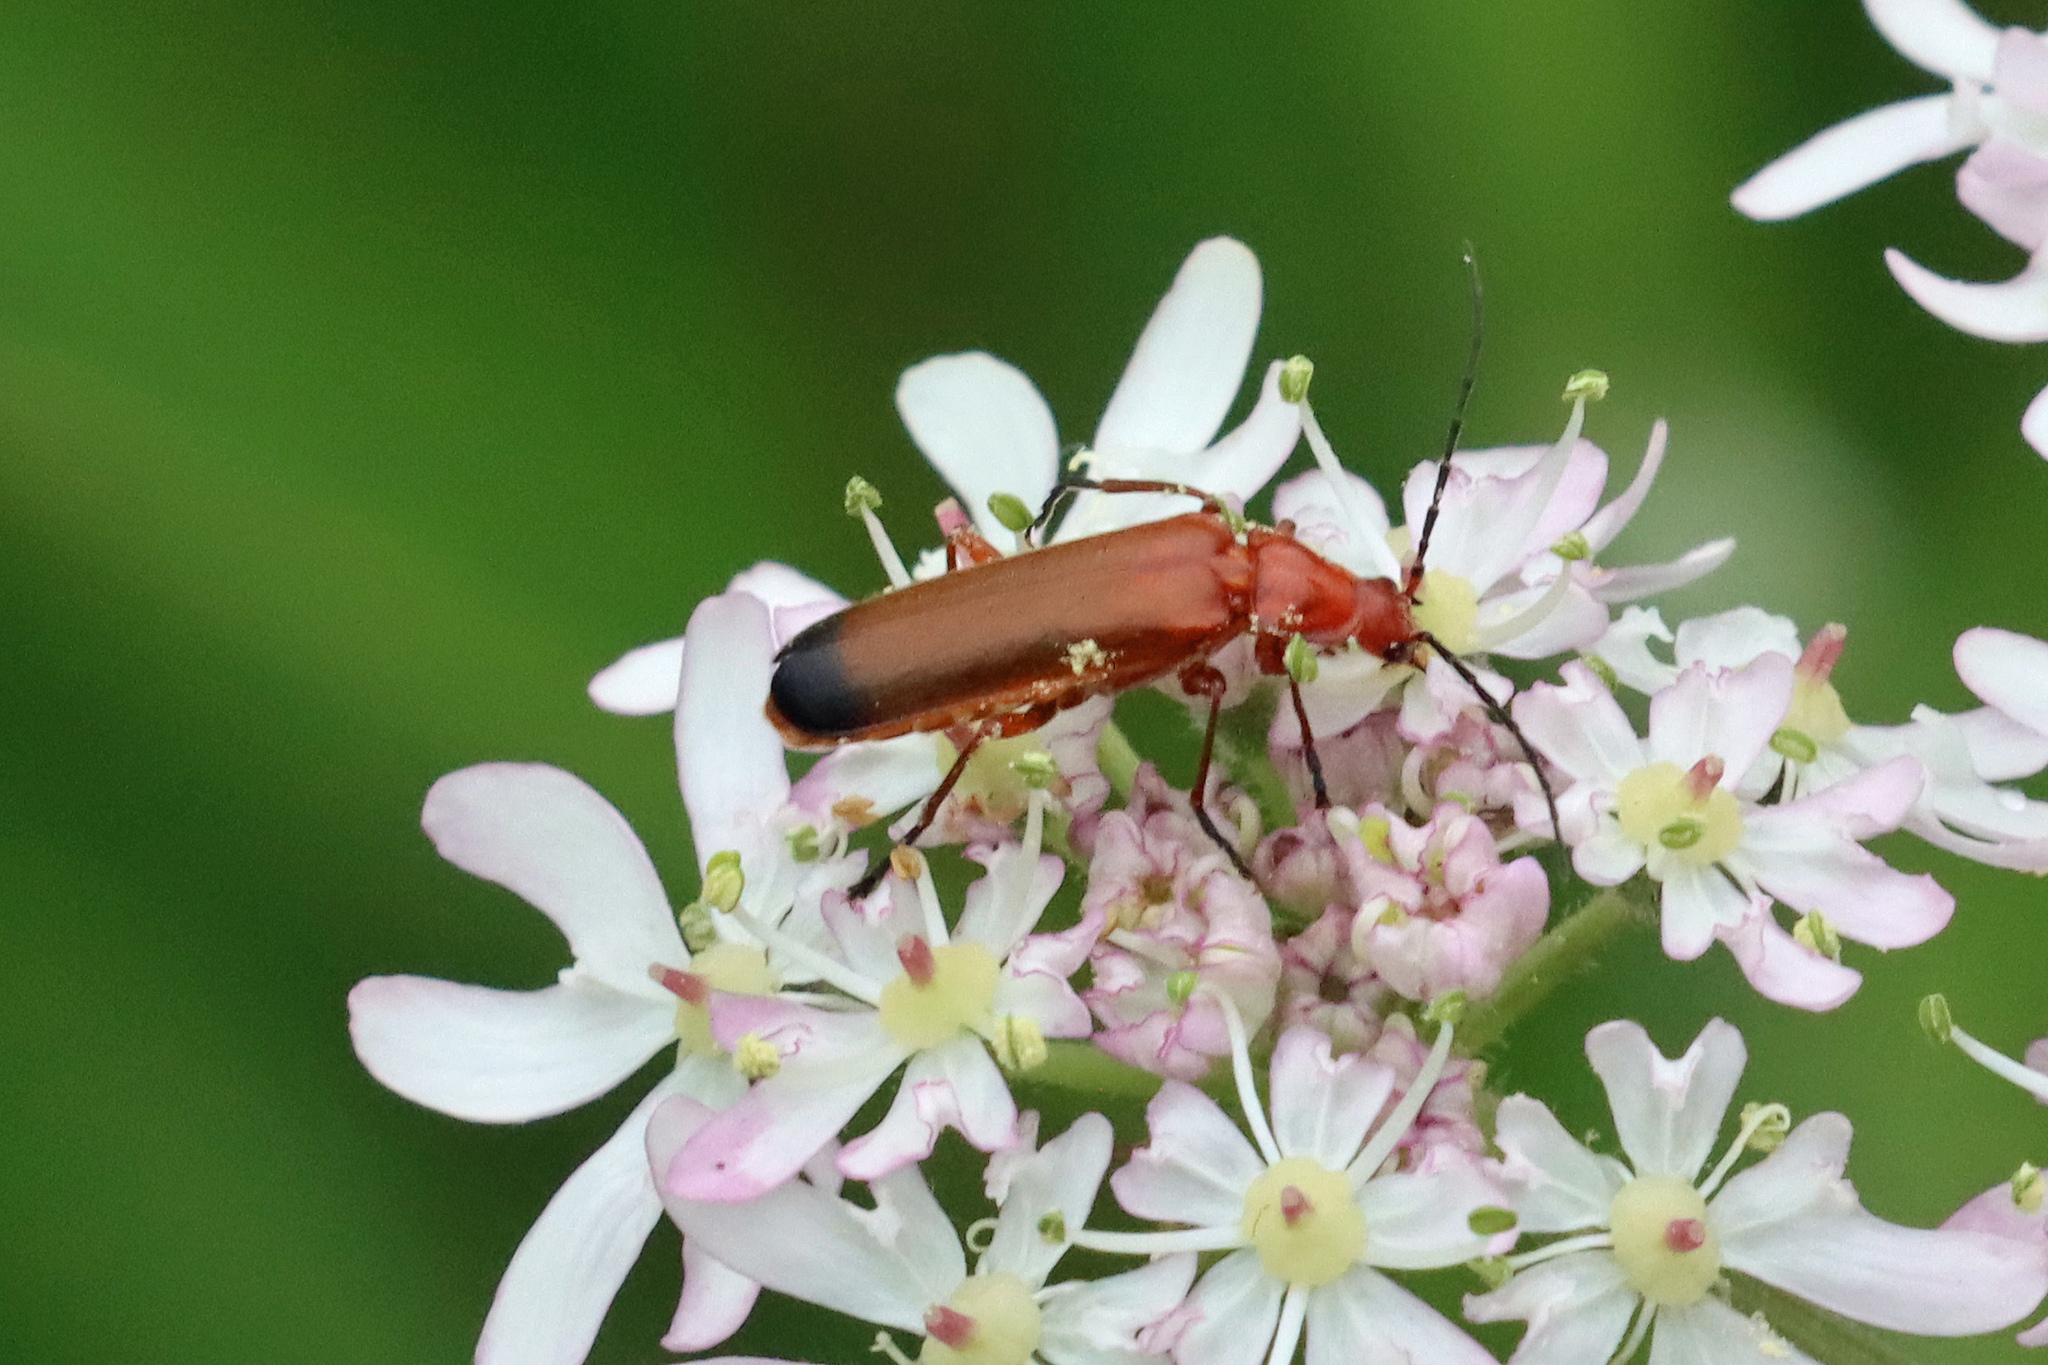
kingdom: Animalia
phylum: Arthropoda
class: Insecta
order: Coleoptera
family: Cantharidae
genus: Rhagonycha
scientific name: Rhagonycha fulva
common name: Common red soldier beetle
